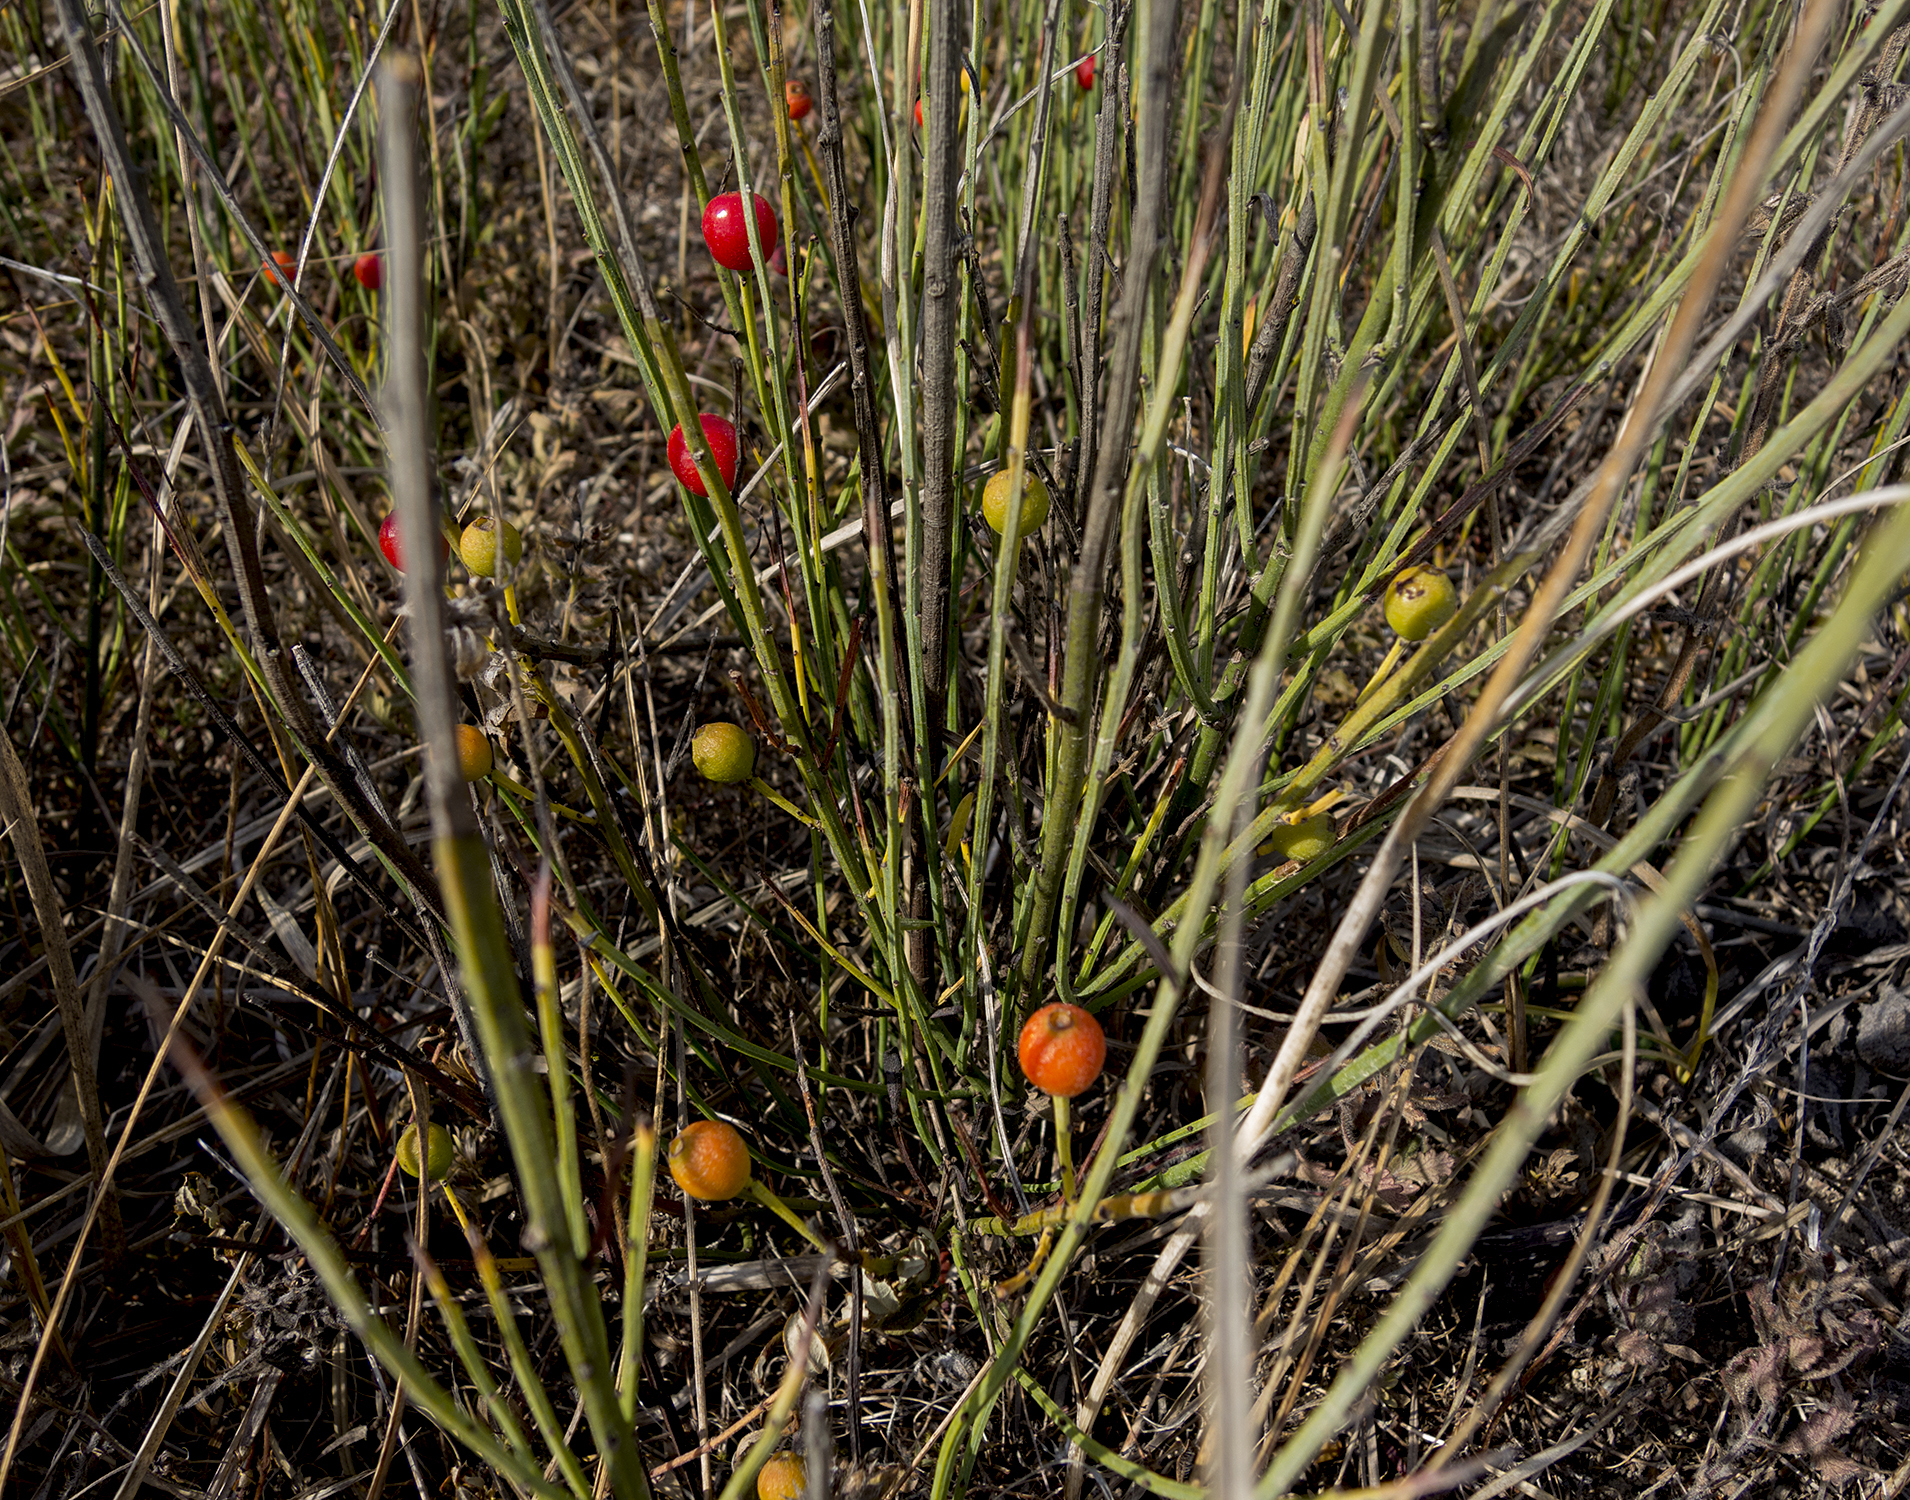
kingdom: Plantae
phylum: Tracheophyta
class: Magnoliopsida
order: Santalales
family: Santalaceae
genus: Osyris
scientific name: Osyris alba
